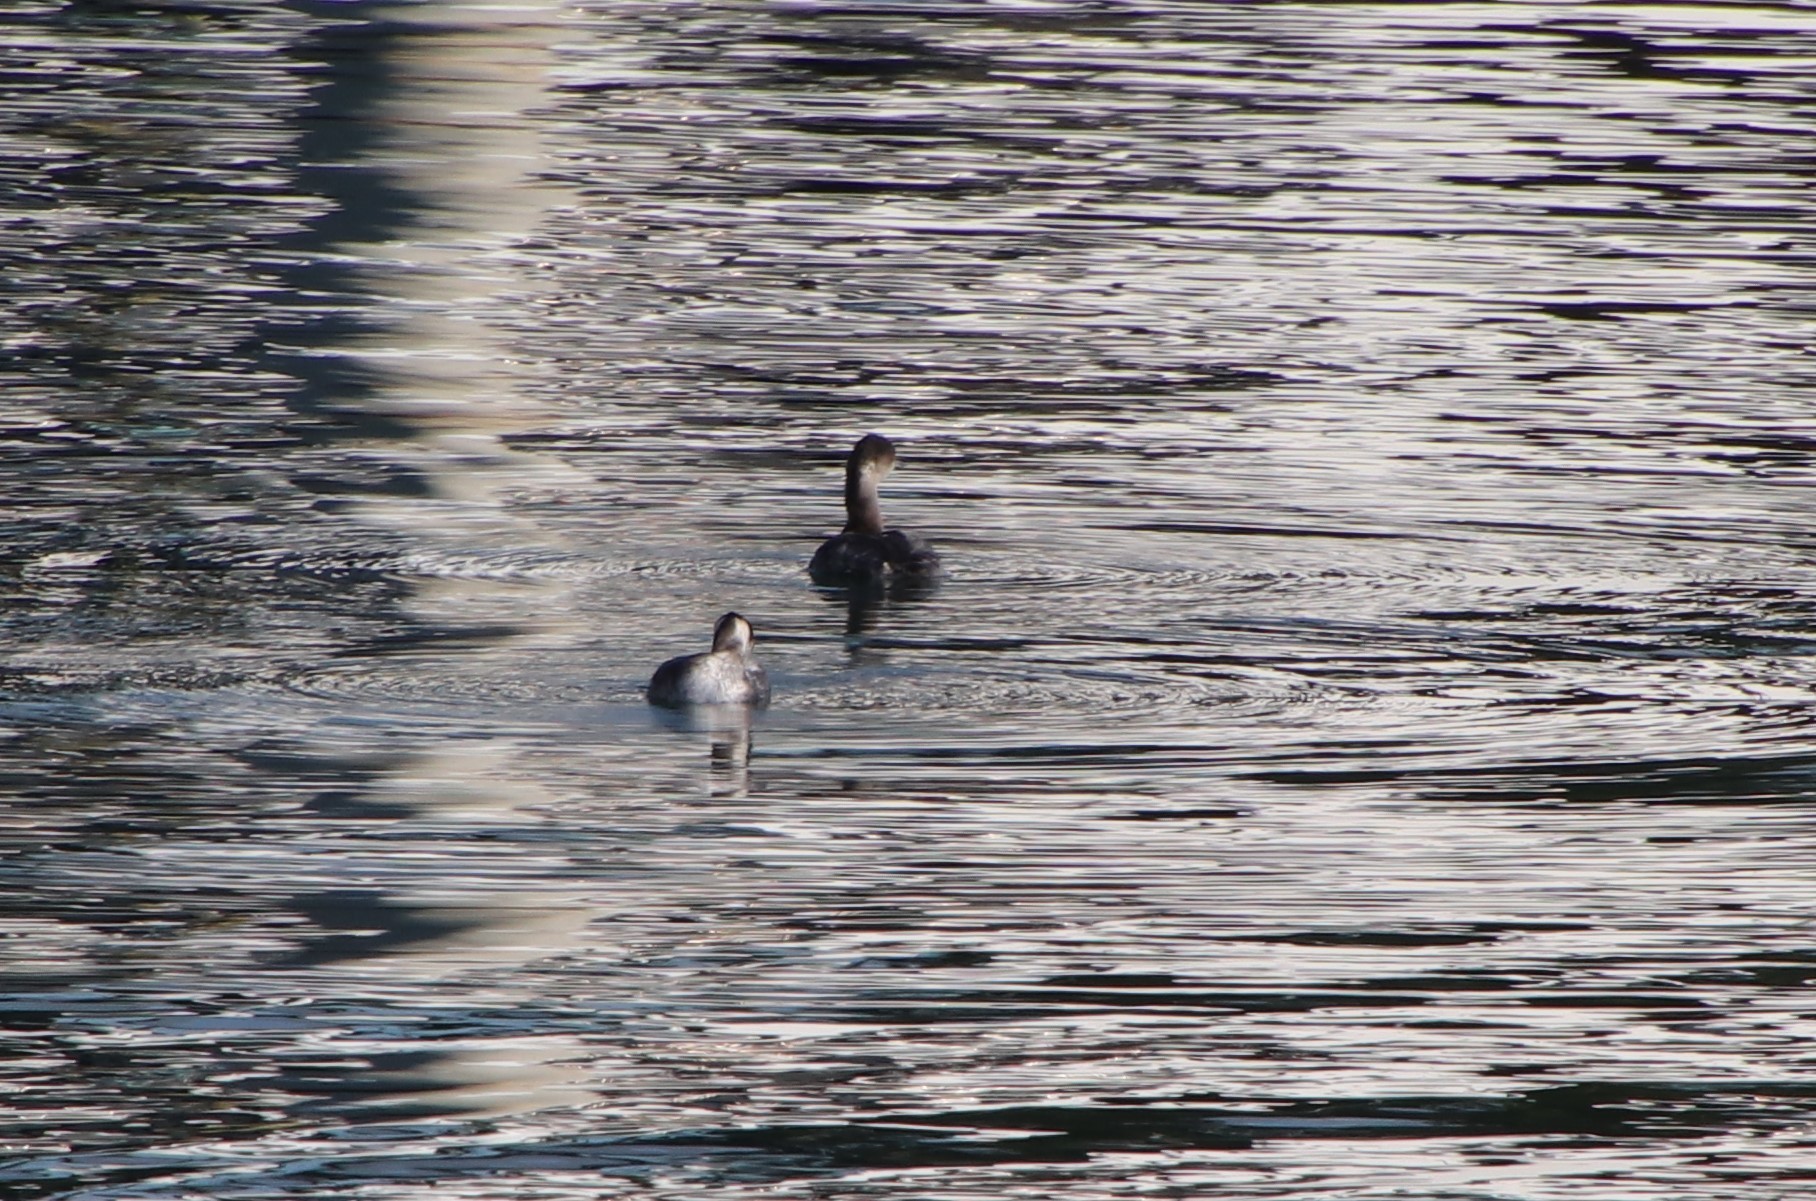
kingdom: Animalia
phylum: Chordata
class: Aves
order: Podicipediformes
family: Podicipedidae
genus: Podiceps
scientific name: Podiceps nigricollis
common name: Black-necked grebe
